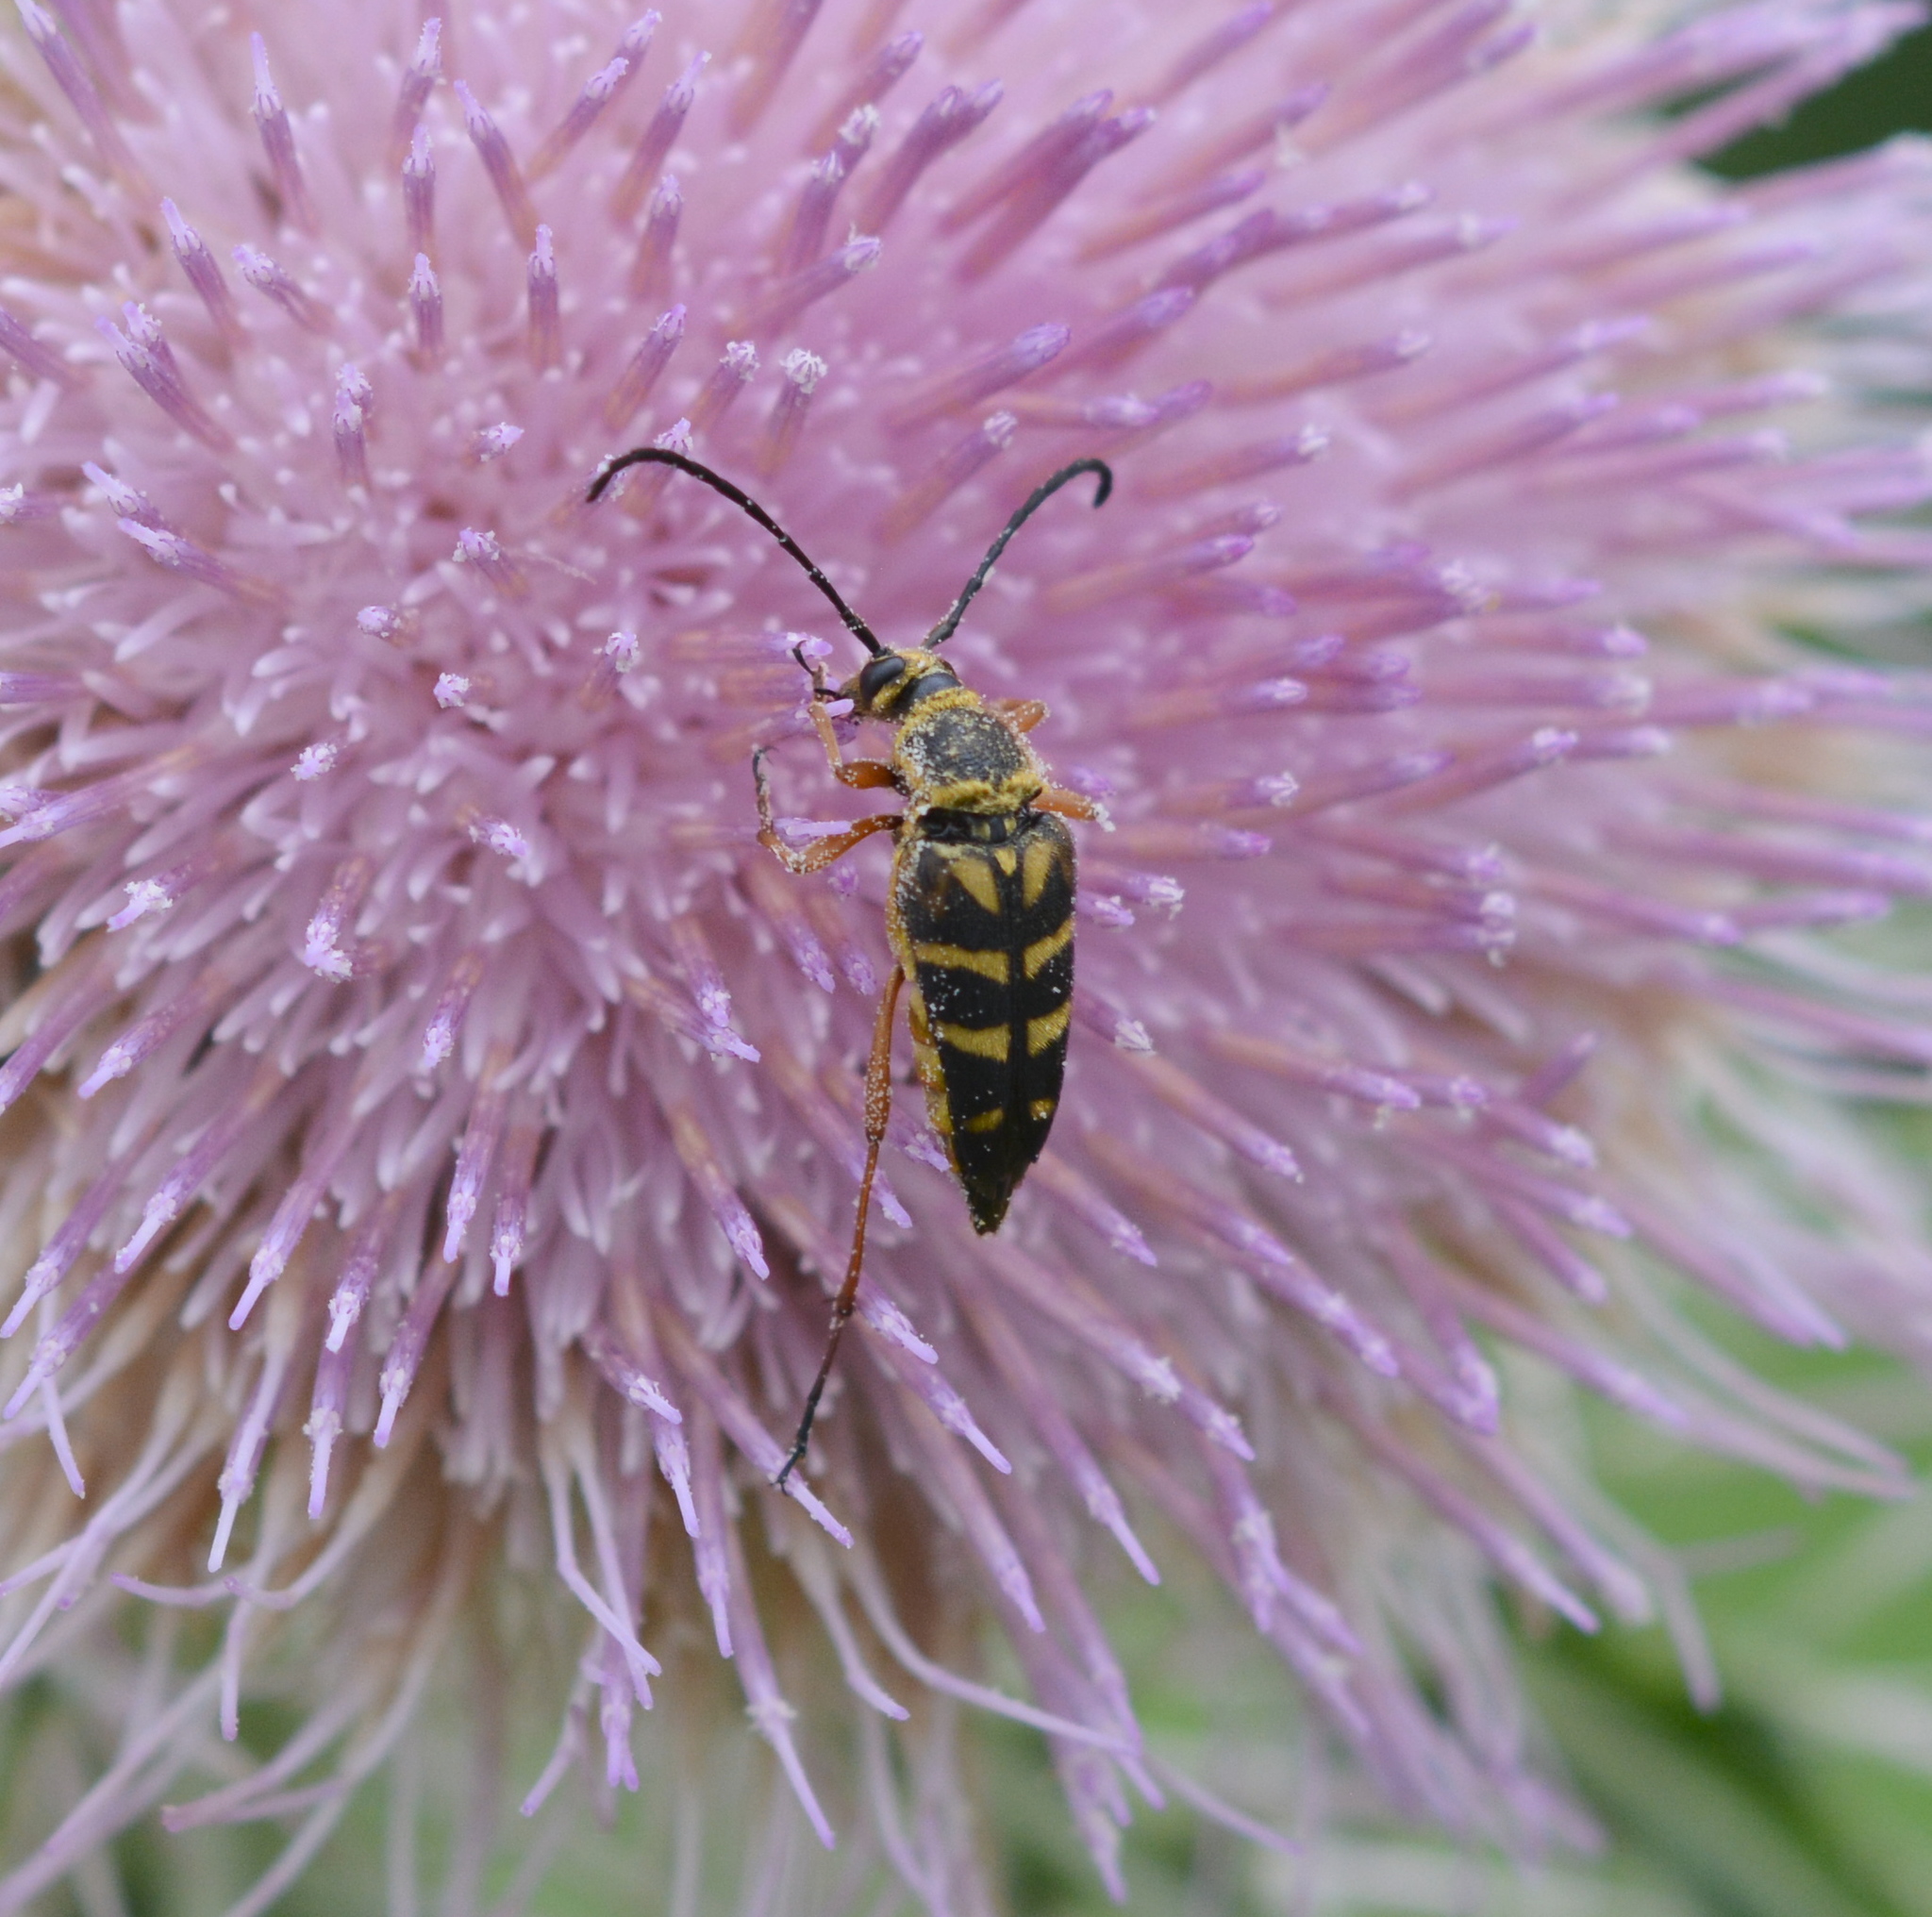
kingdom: Animalia
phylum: Arthropoda
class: Insecta
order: Coleoptera
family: Cerambycidae
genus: Typocerus
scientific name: Typocerus zebra
